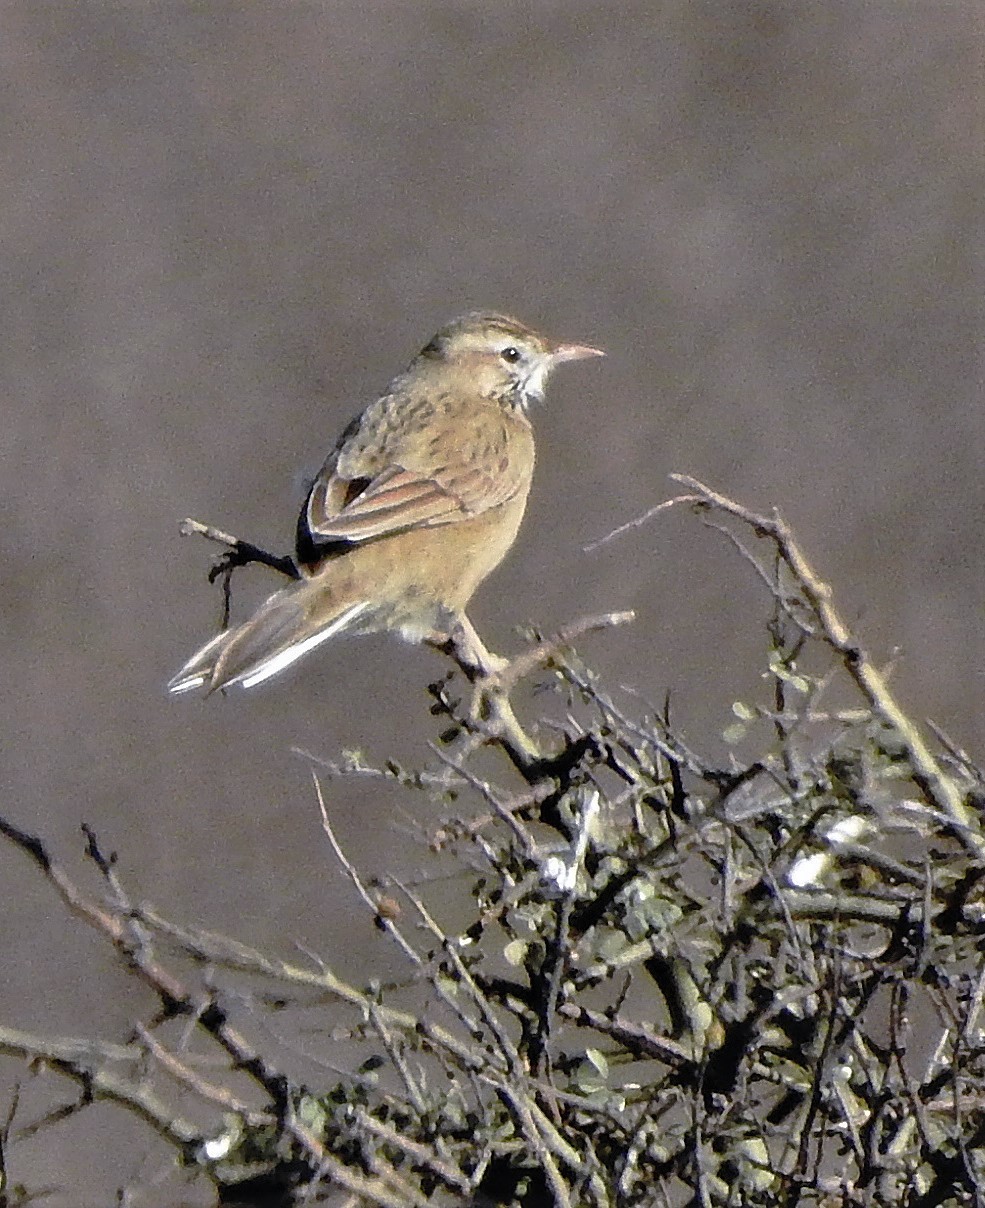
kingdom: Animalia
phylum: Chordata
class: Aves
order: Passeriformes
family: Furnariidae
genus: Anumbius
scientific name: Anumbius annumbi
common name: Firewood-gatherer
